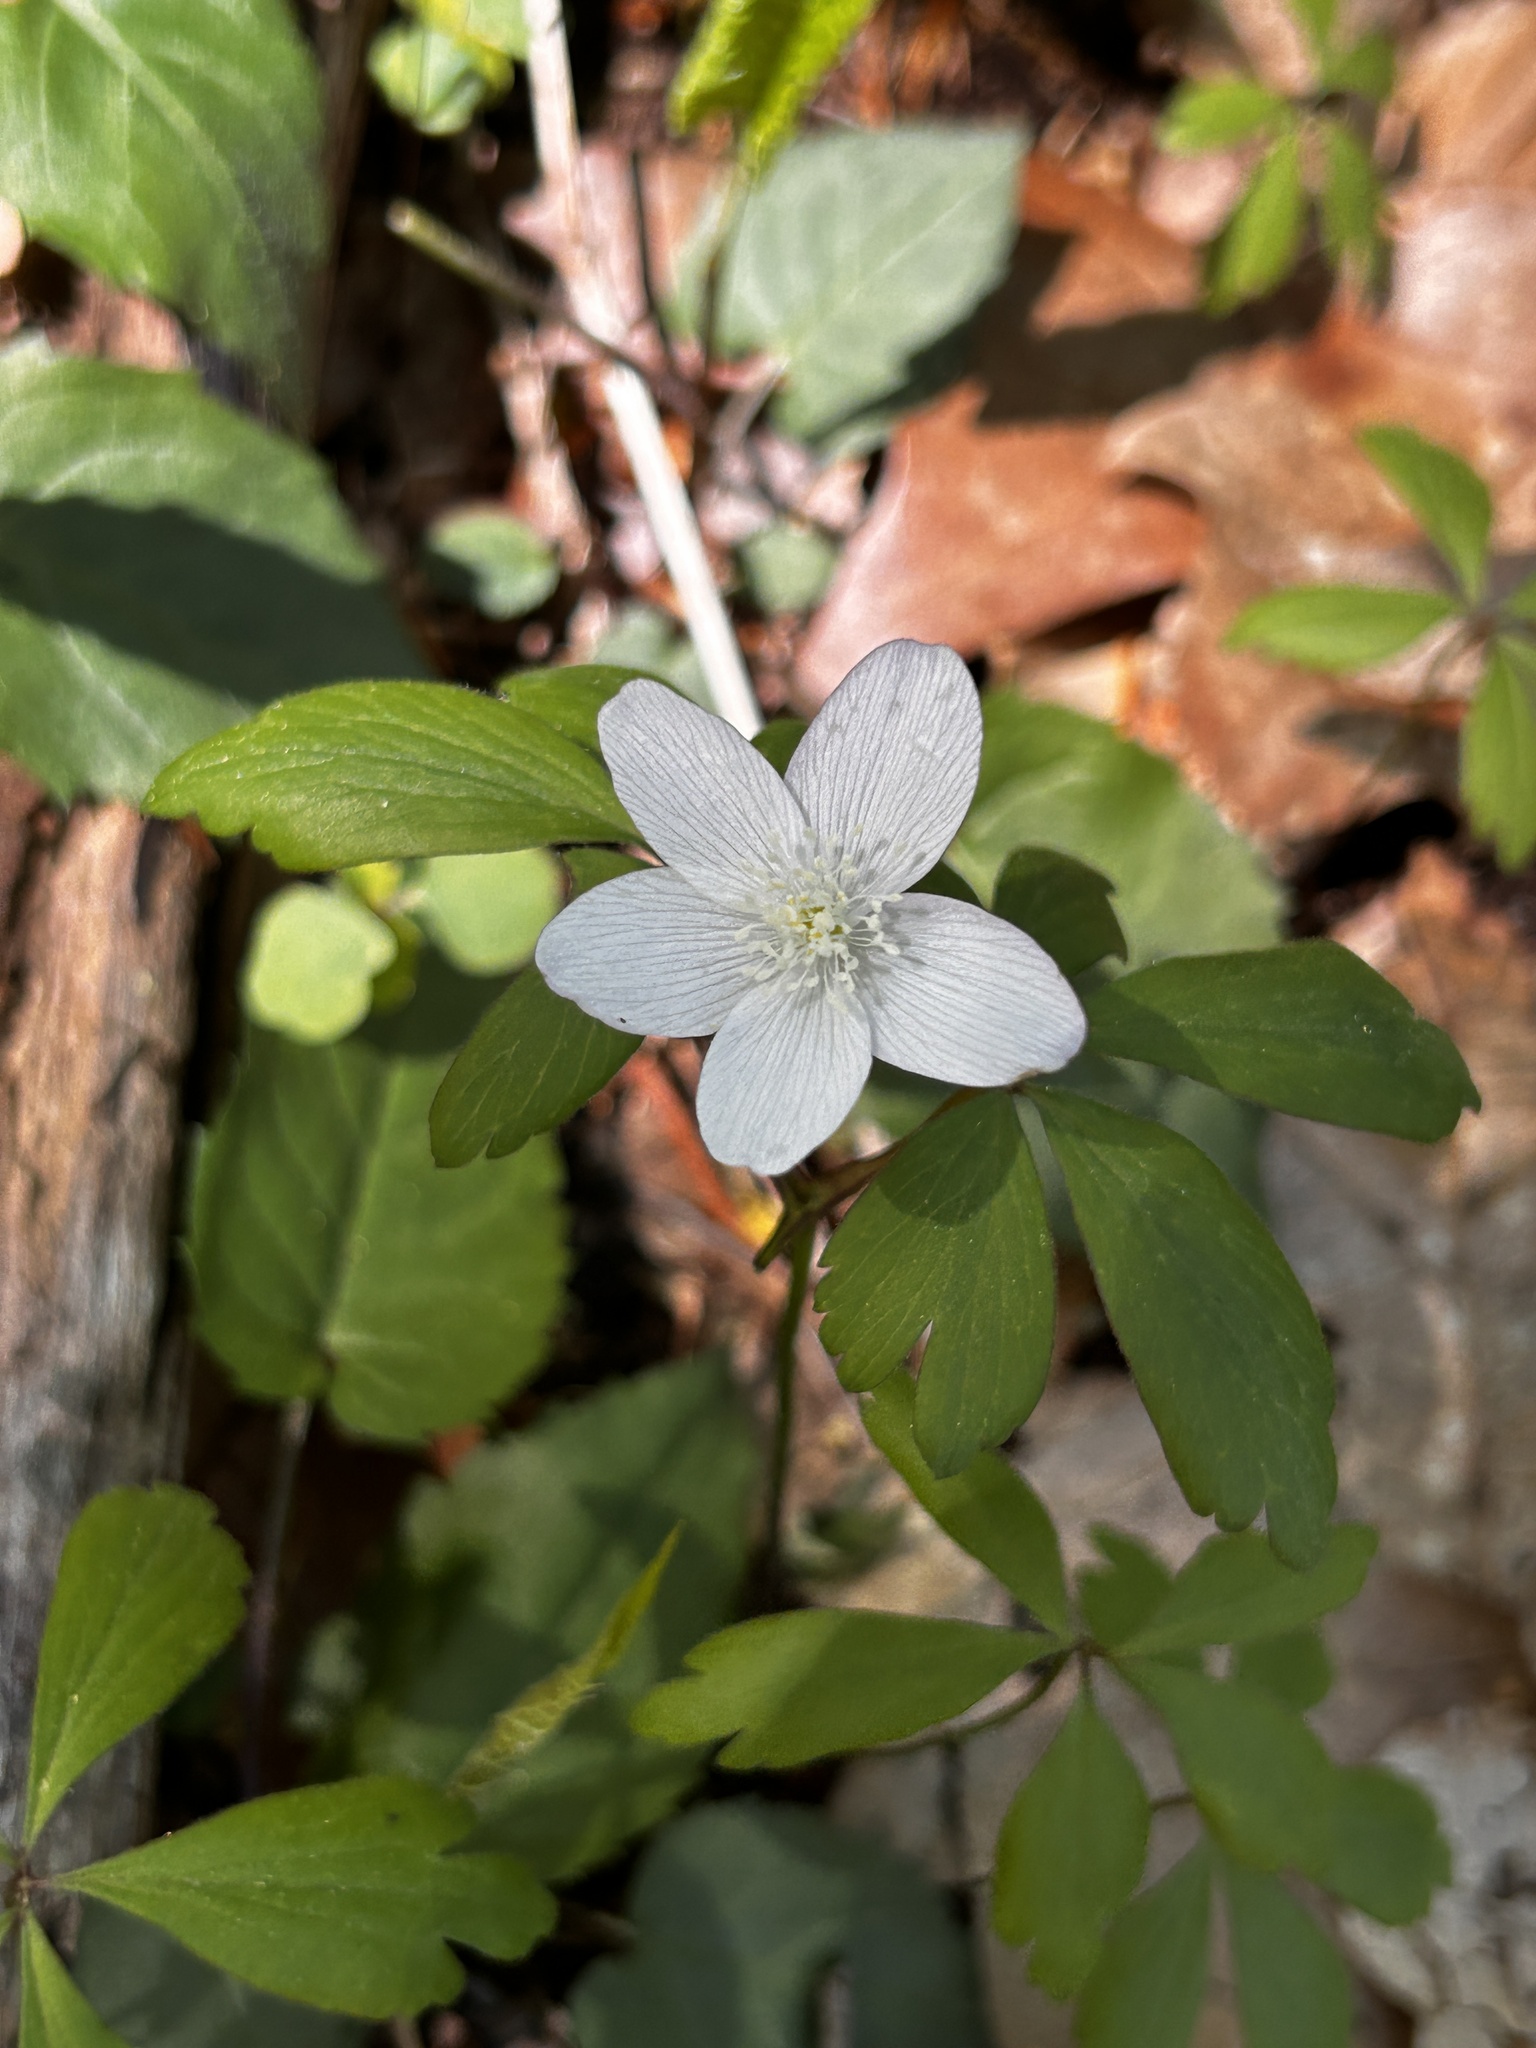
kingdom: Plantae
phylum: Tracheophyta
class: Magnoliopsida
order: Ranunculales
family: Ranunculaceae
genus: Anemone
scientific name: Anemone quinquefolia
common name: Wood anemone
